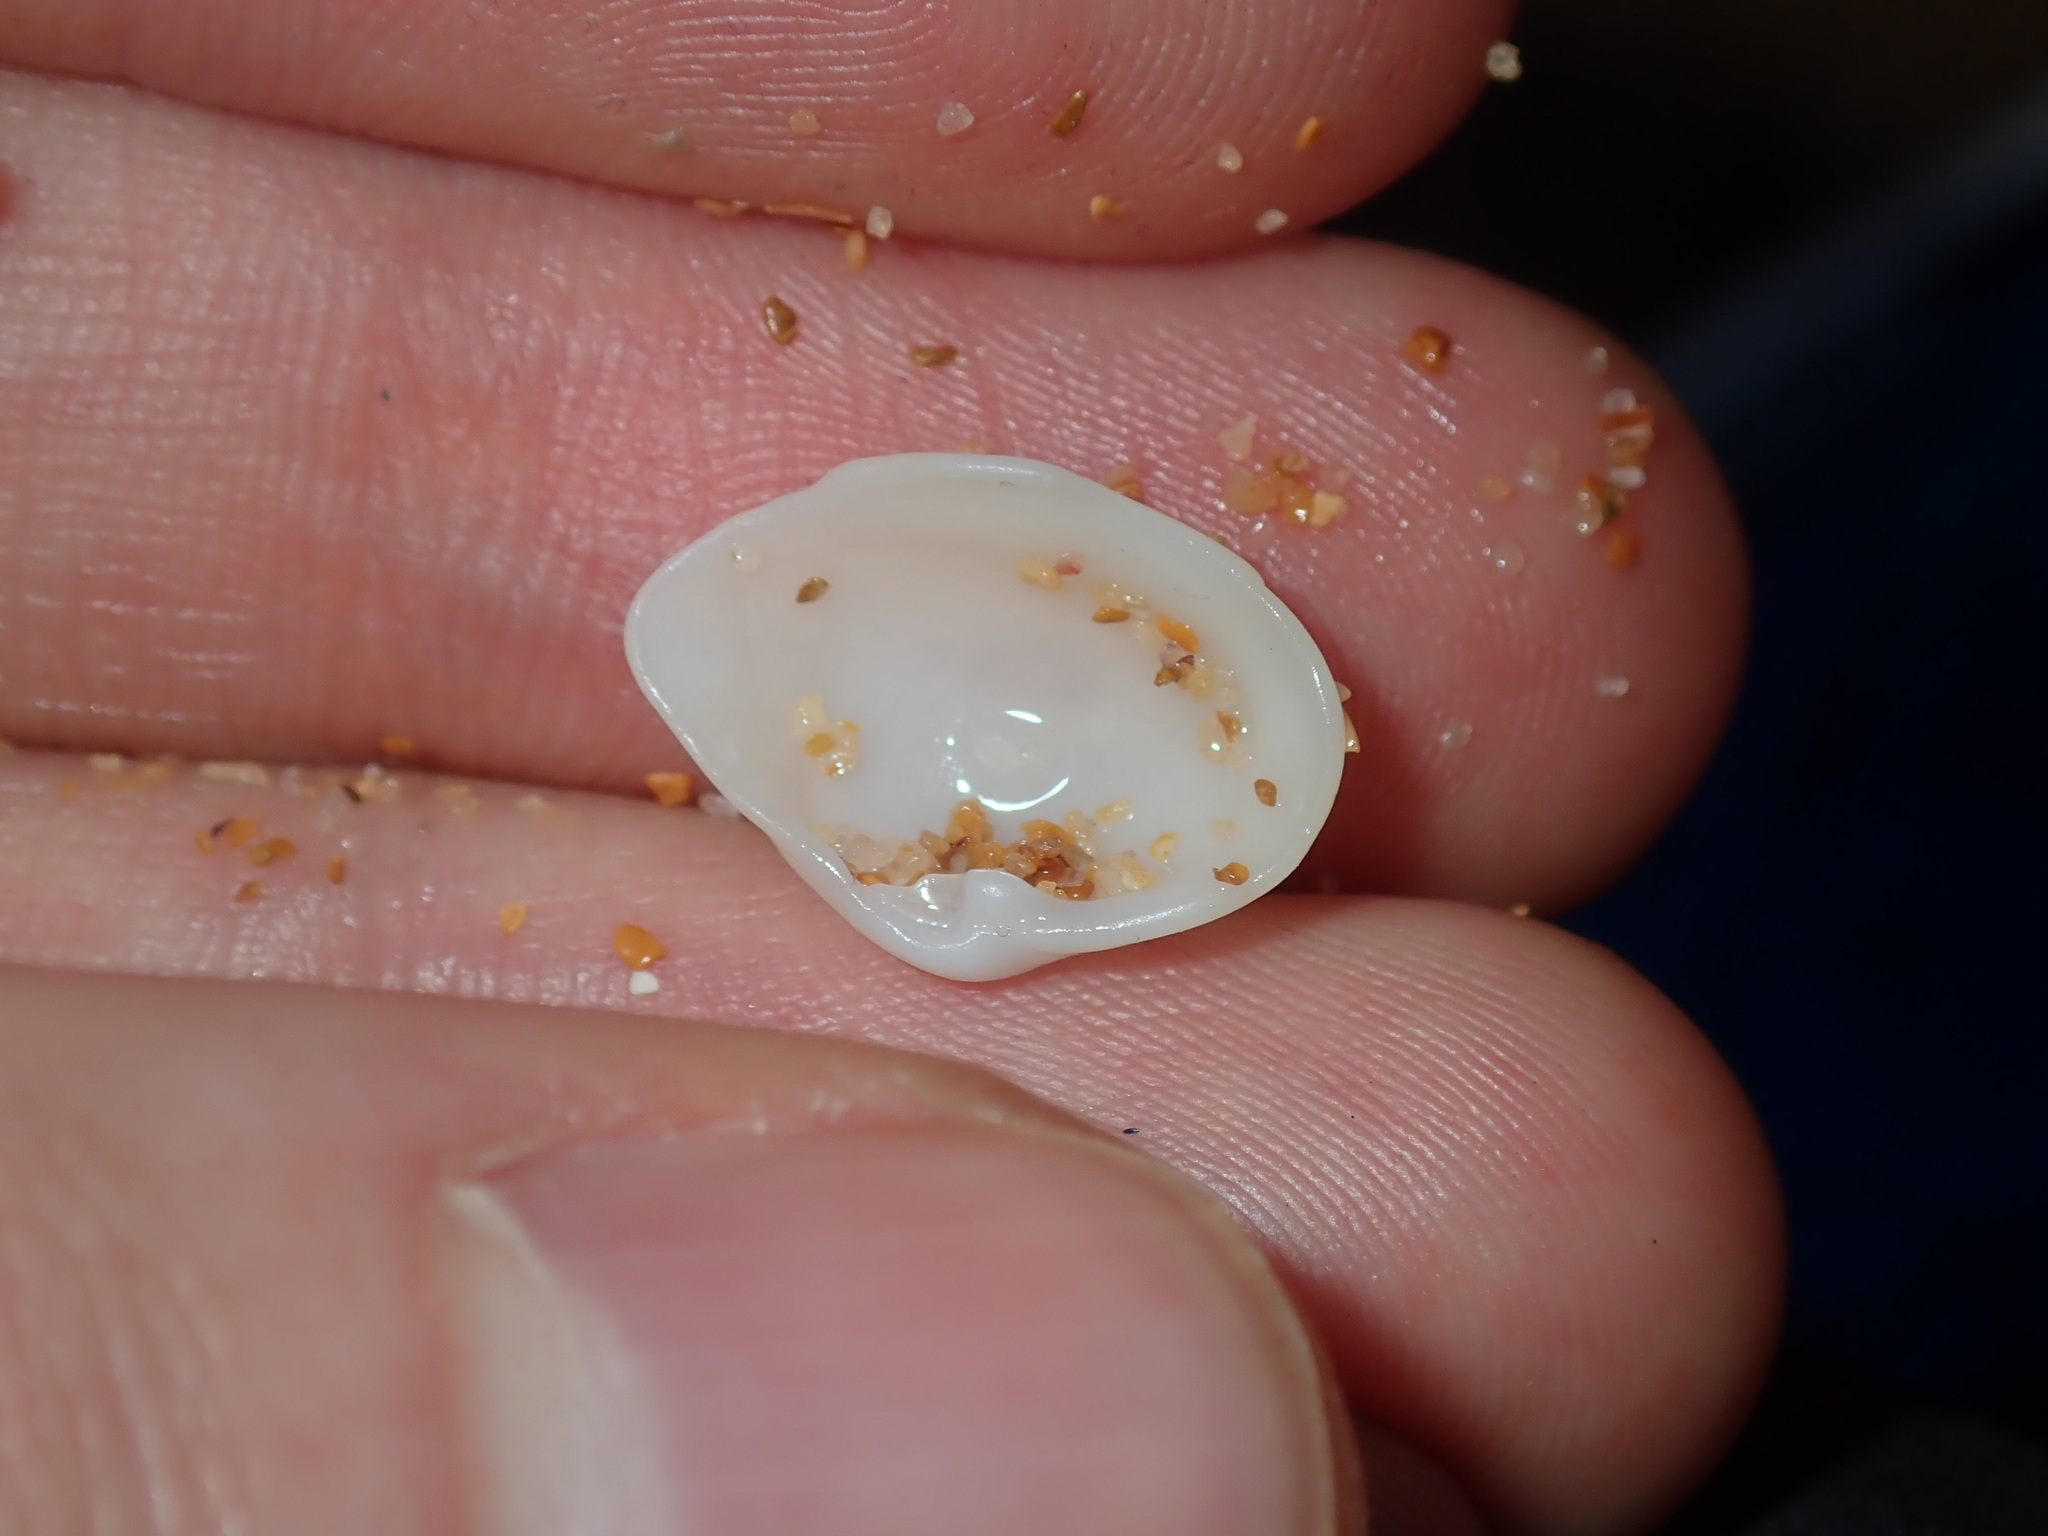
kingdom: Animalia
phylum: Mollusca
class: Bivalvia
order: Myida
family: Corbulidae
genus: Corbula
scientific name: Corbula smithiana
